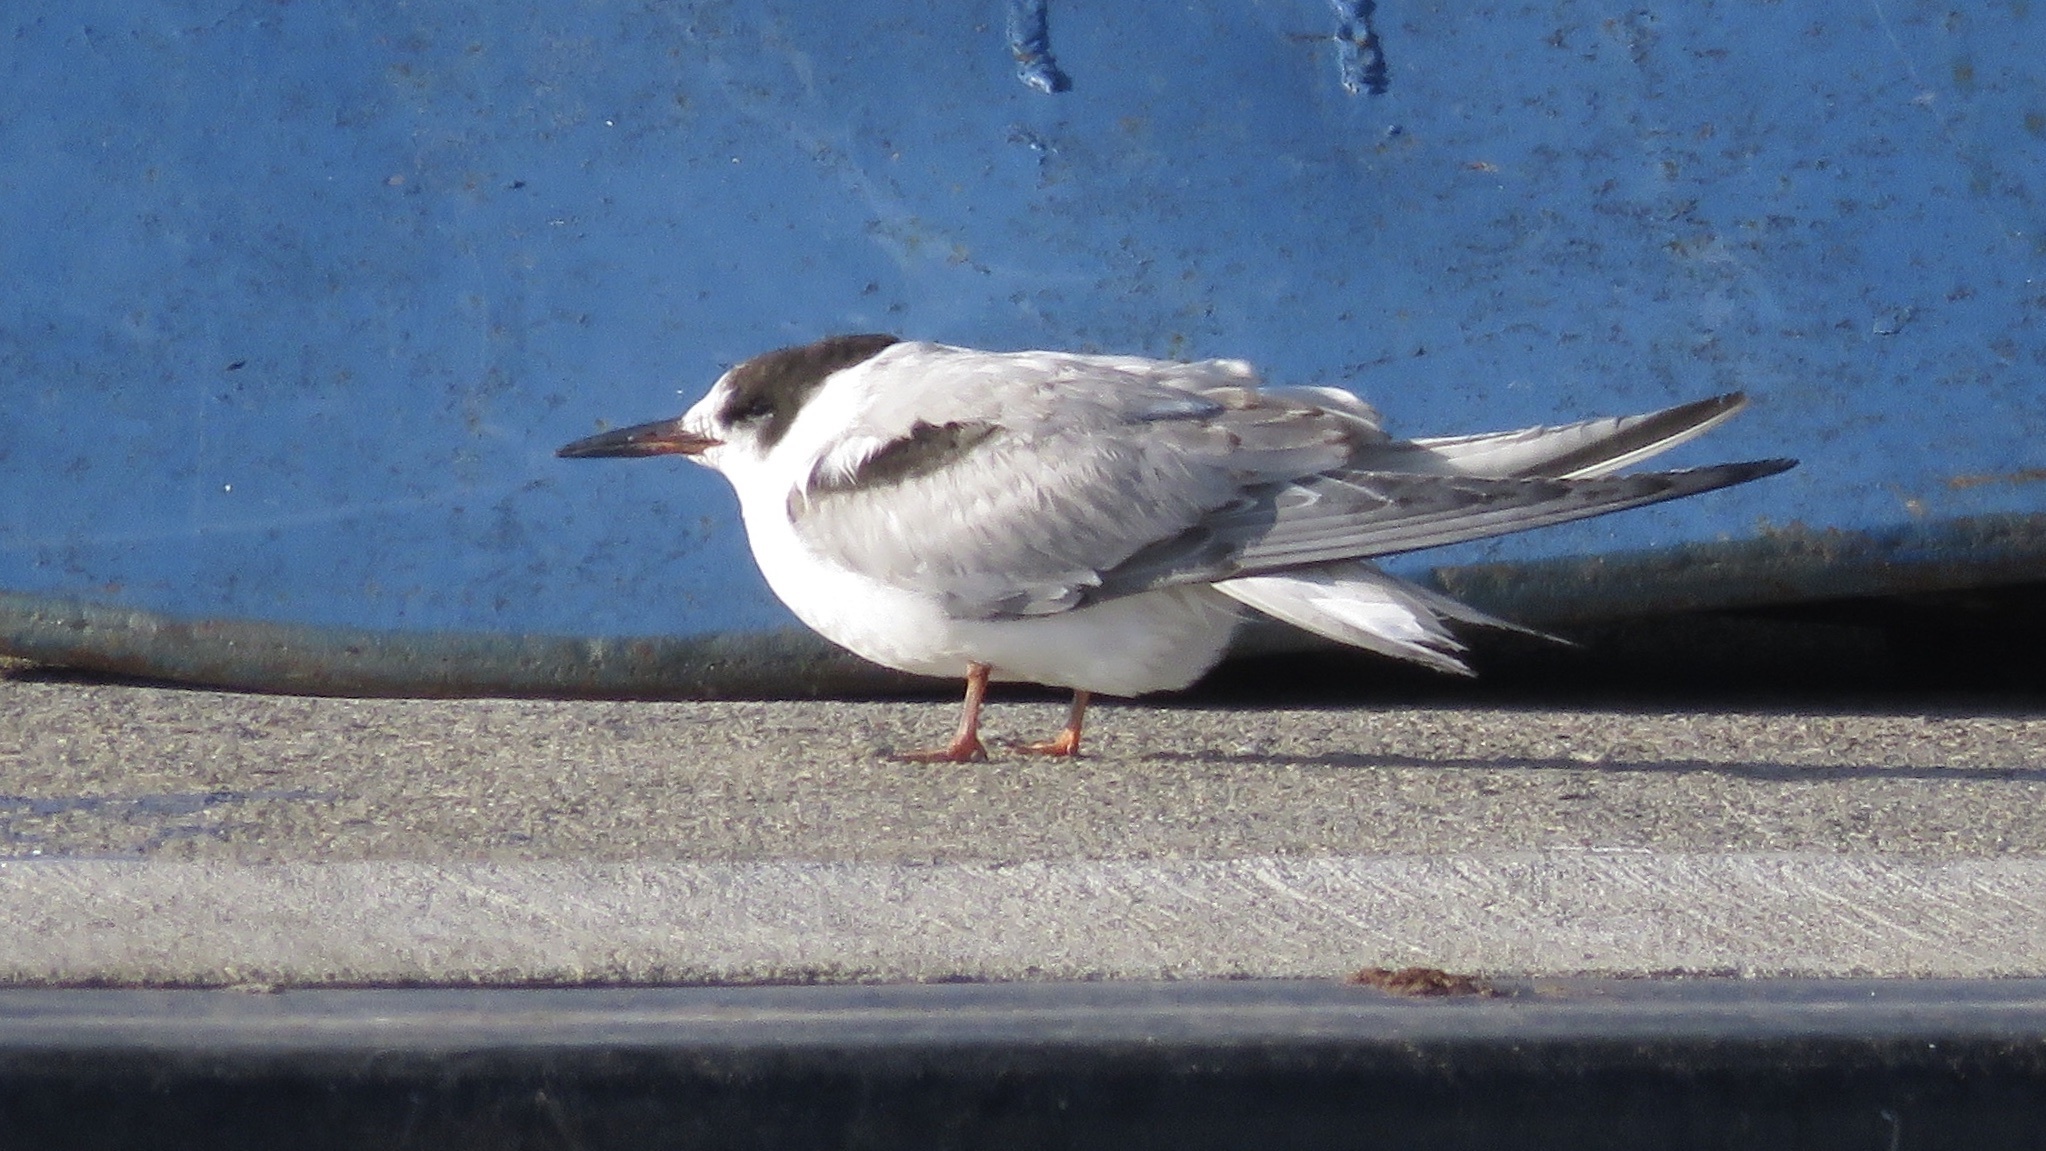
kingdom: Animalia
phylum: Chordata
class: Aves
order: Charadriiformes
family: Laridae
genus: Sterna
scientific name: Sterna hirundo
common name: Common tern
